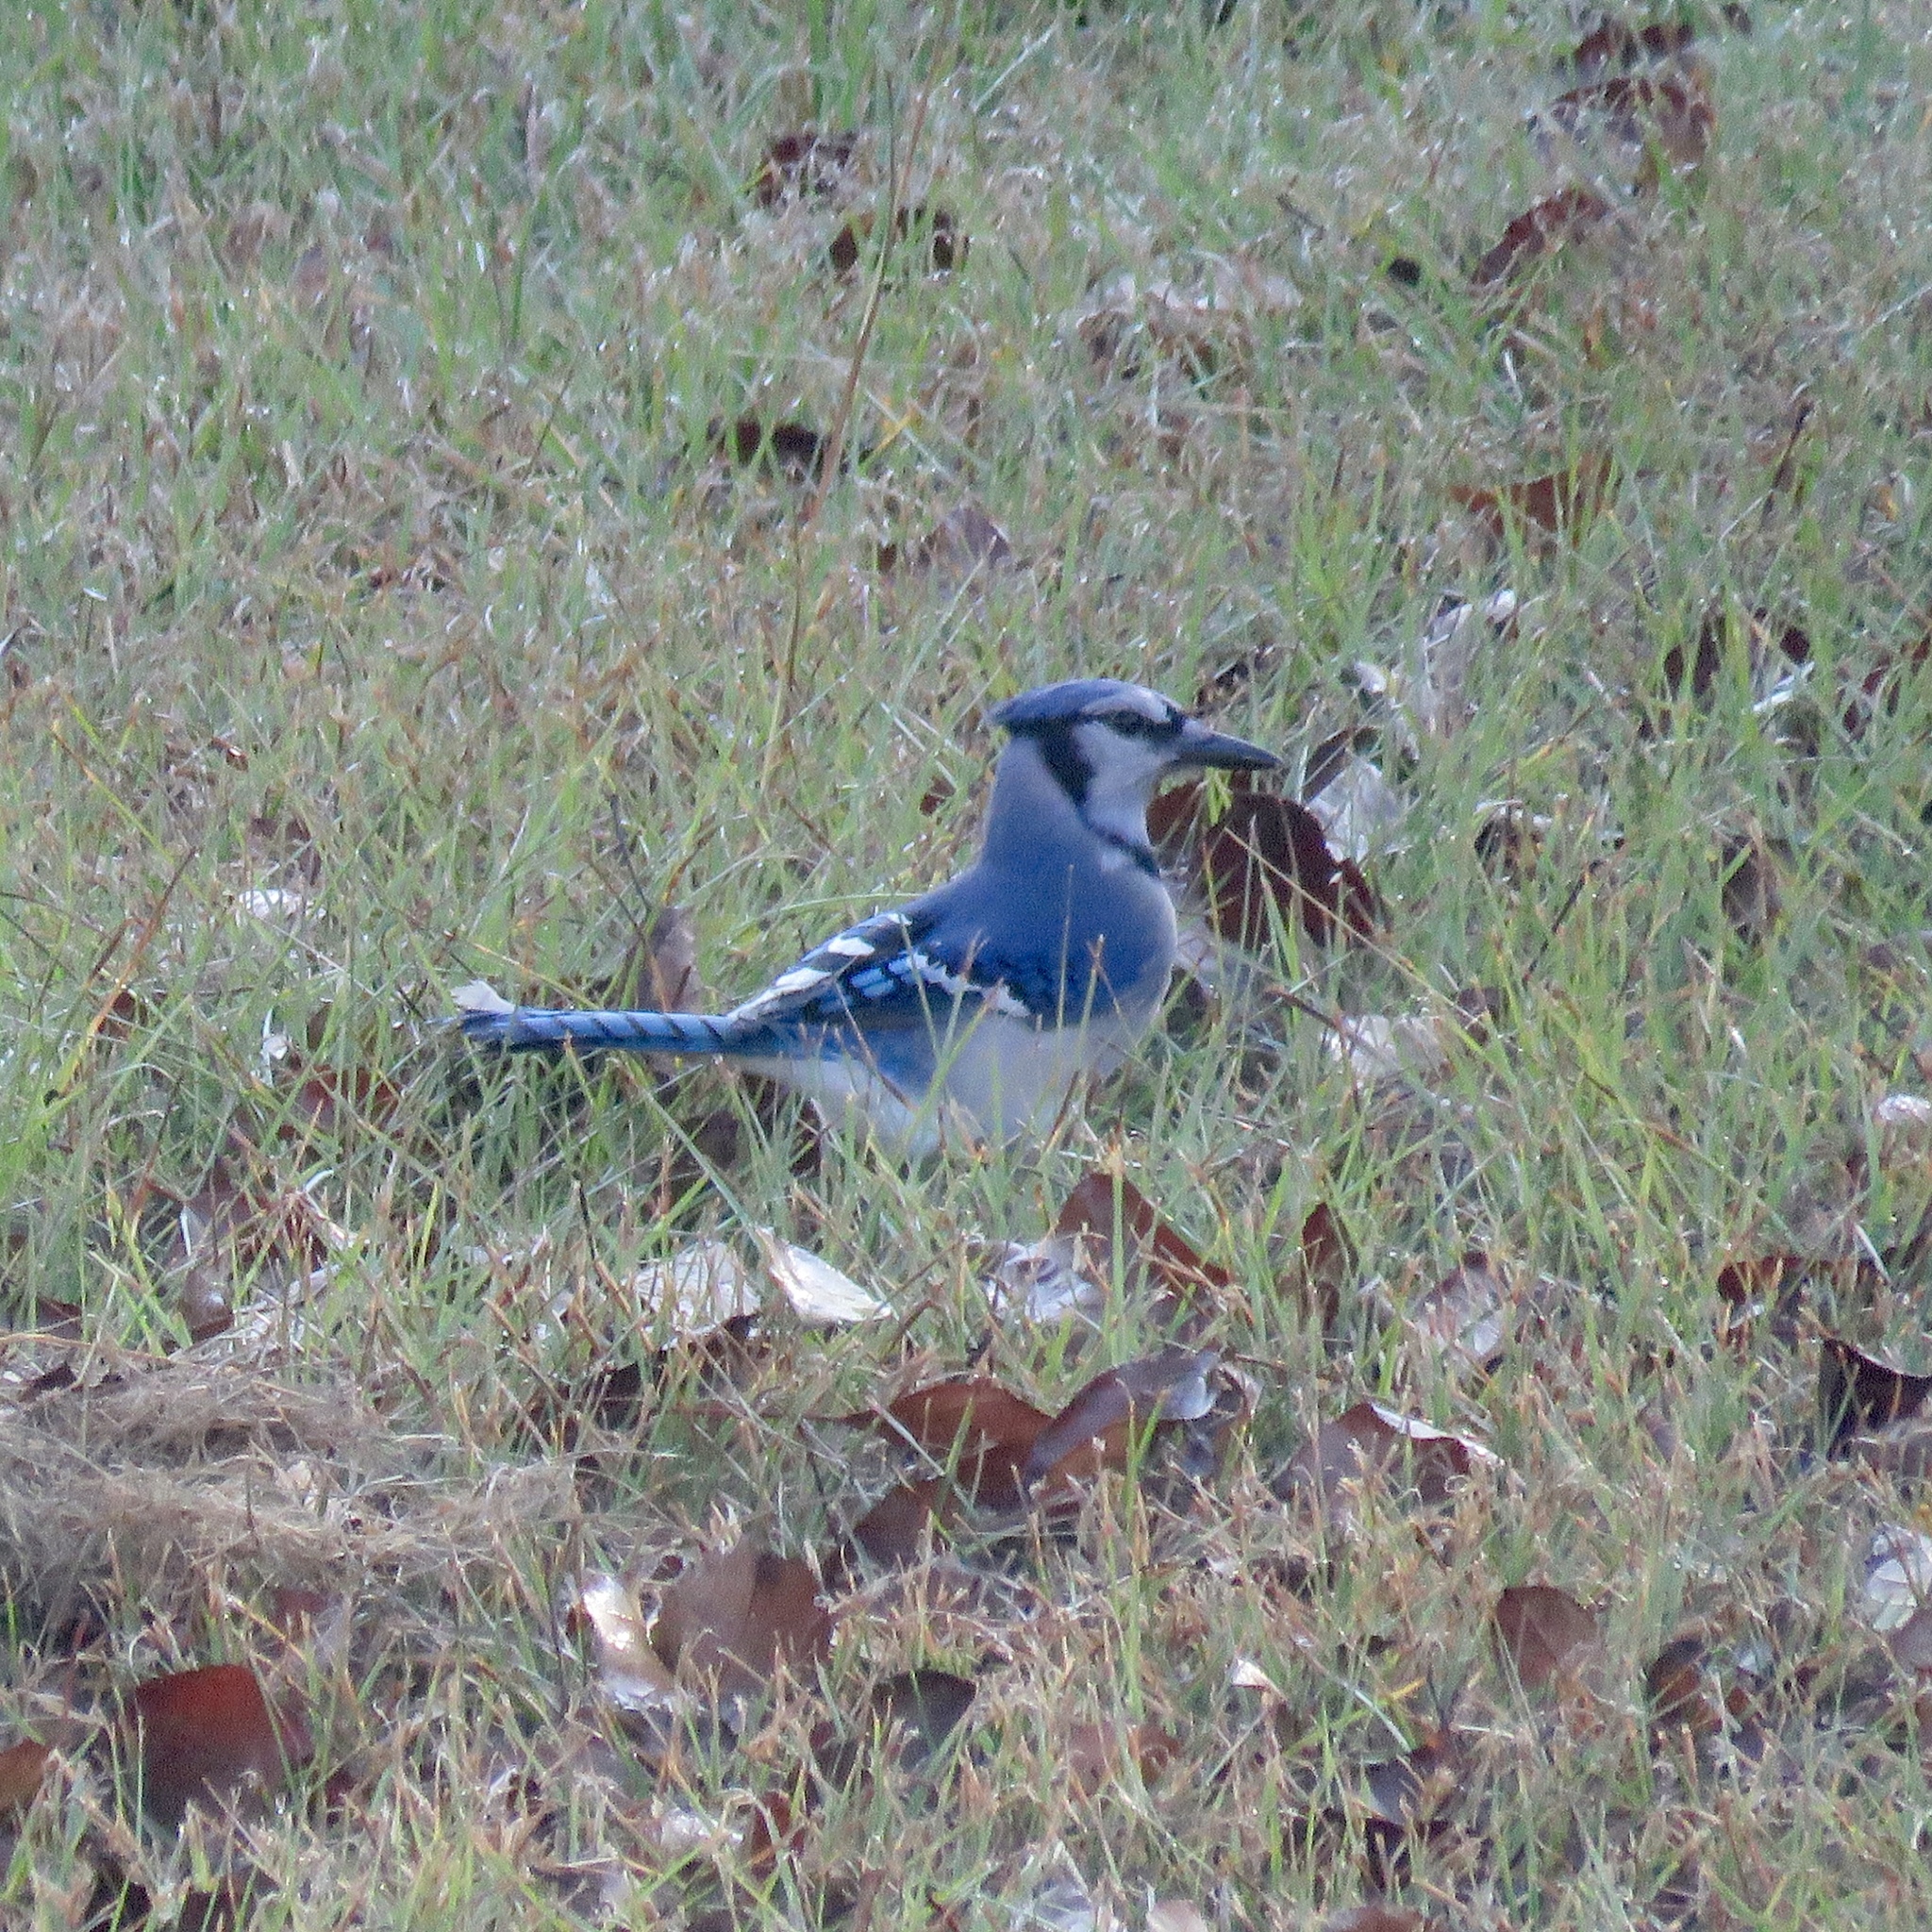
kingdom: Animalia
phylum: Chordata
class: Aves
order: Passeriformes
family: Corvidae
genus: Cyanocitta
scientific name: Cyanocitta cristata
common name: Blue jay
